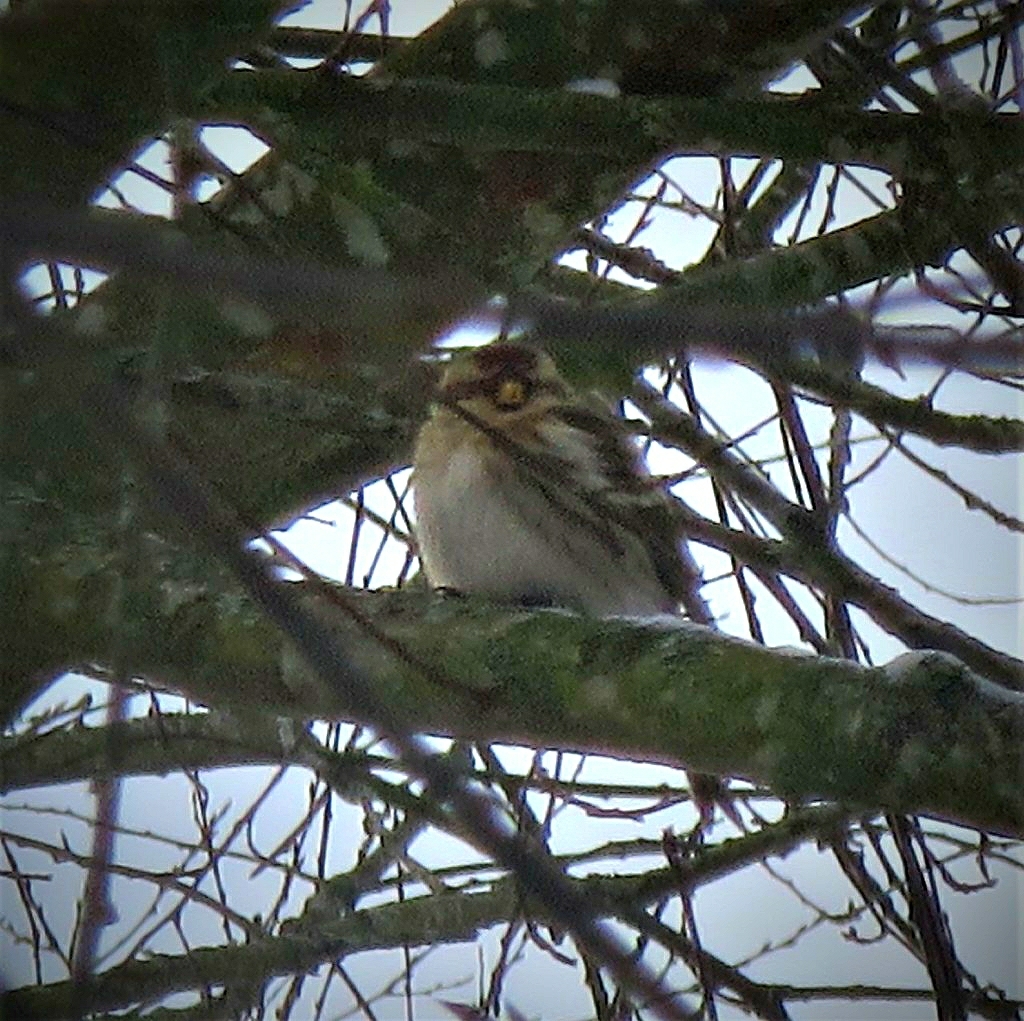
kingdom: Animalia
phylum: Chordata
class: Aves
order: Passeriformes
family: Fringillidae
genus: Acanthis
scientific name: Acanthis flammea
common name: Common redpoll
